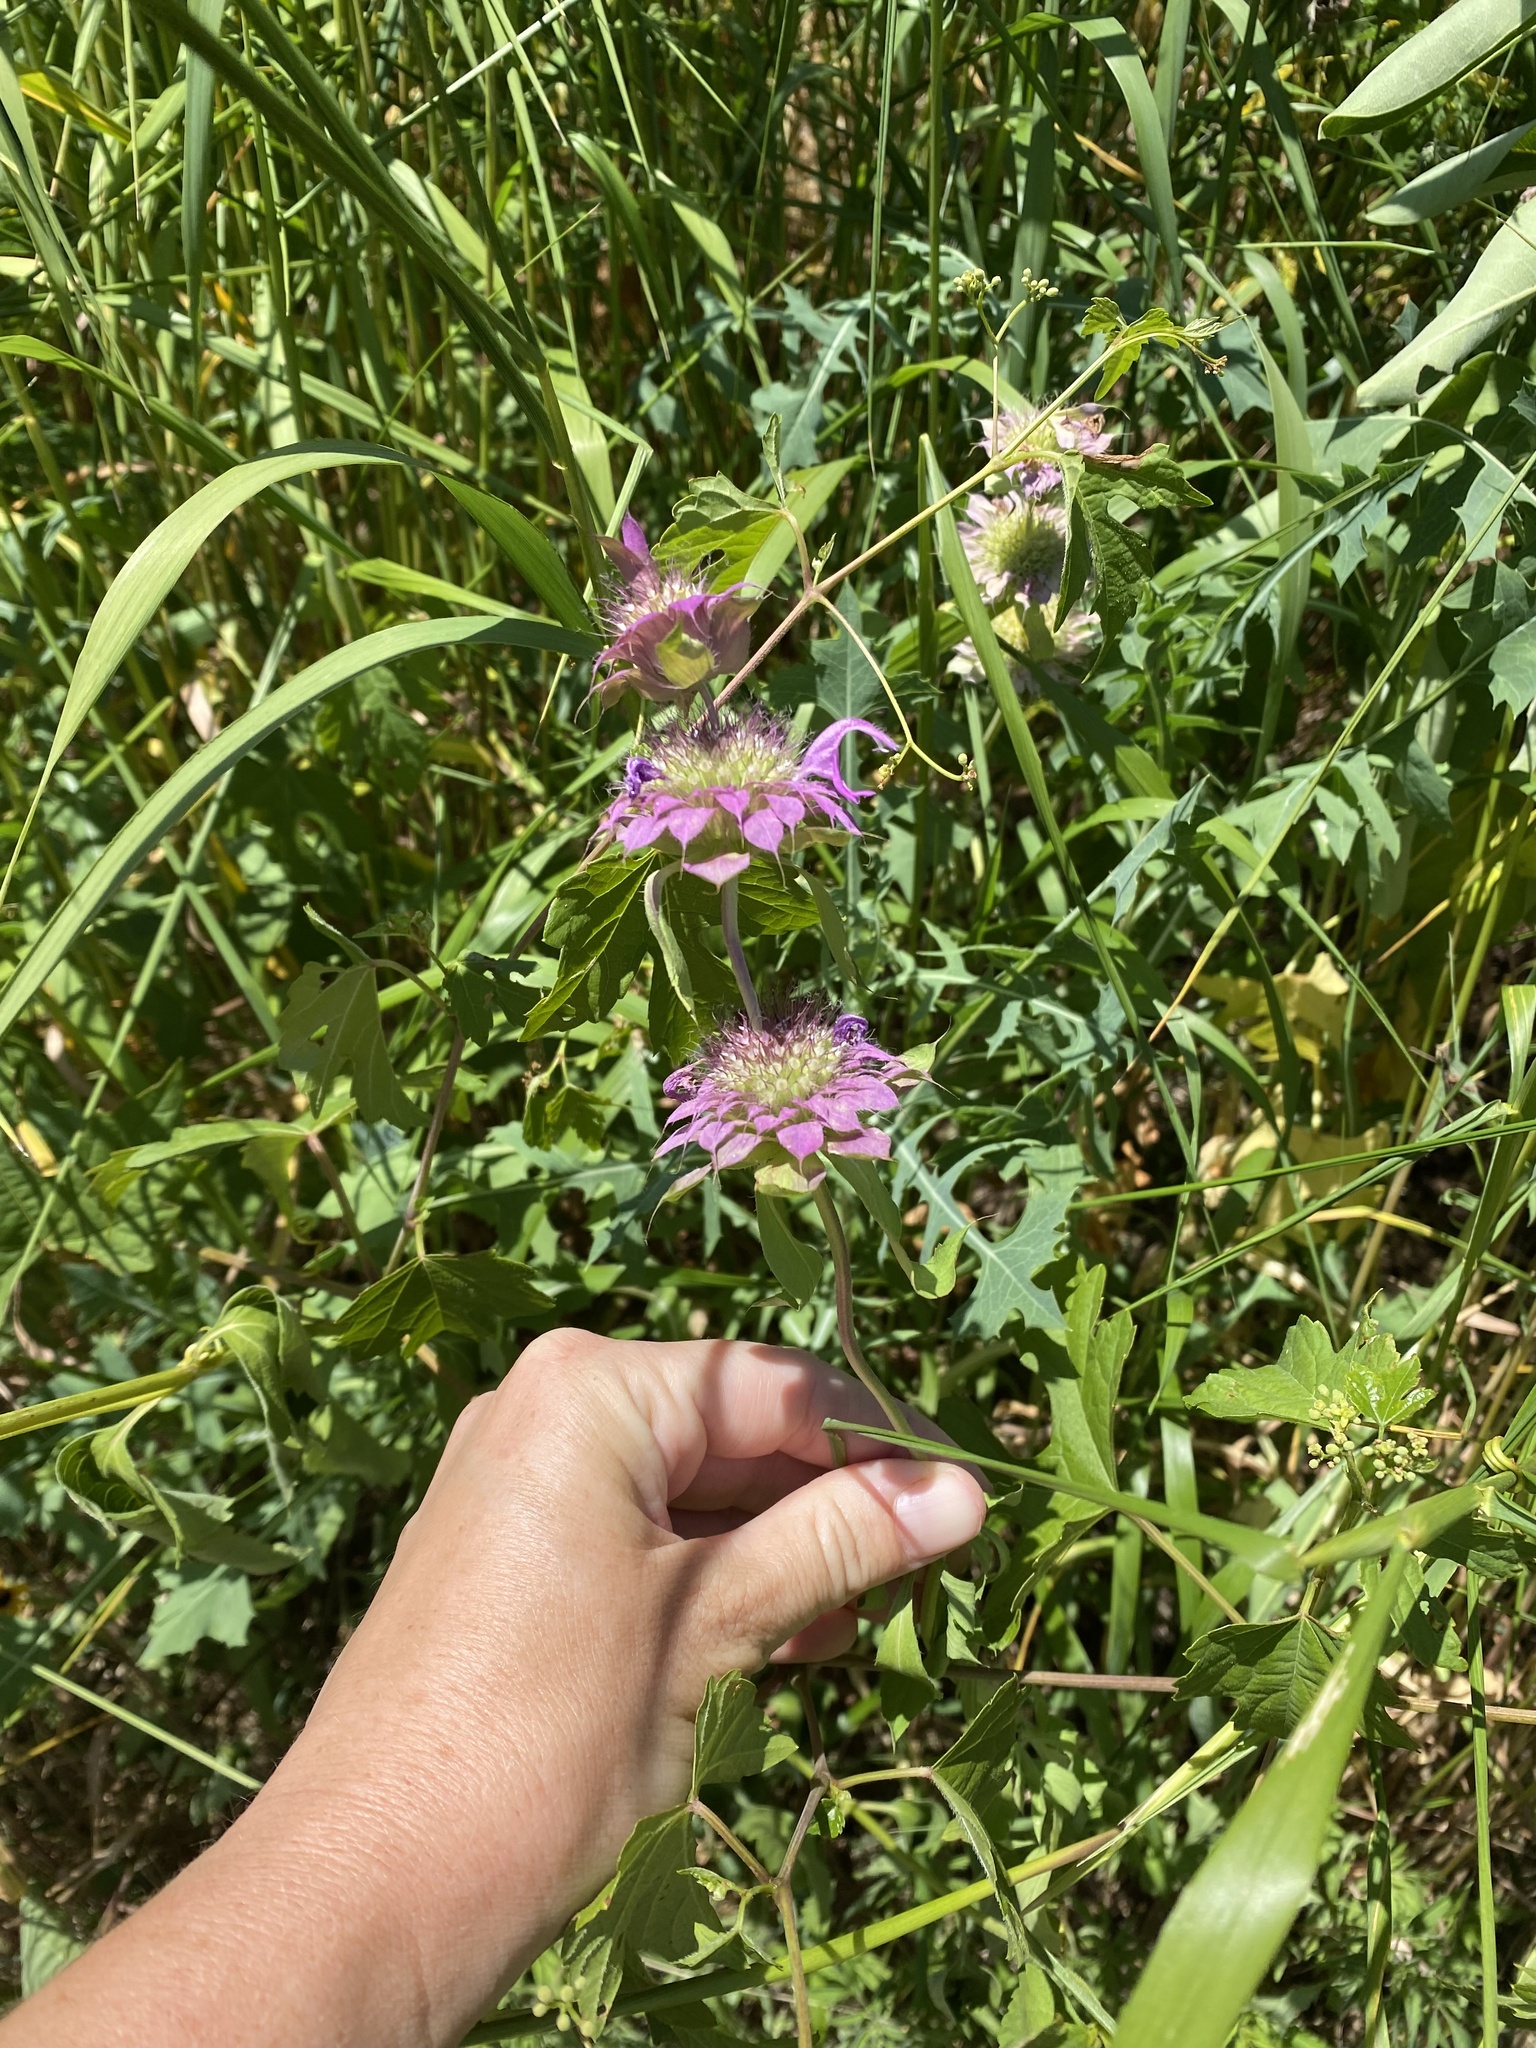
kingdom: Plantae
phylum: Tracheophyta
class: Magnoliopsida
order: Lamiales
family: Lamiaceae
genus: Monarda
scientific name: Monarda citriodora
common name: Lemon beebalm
